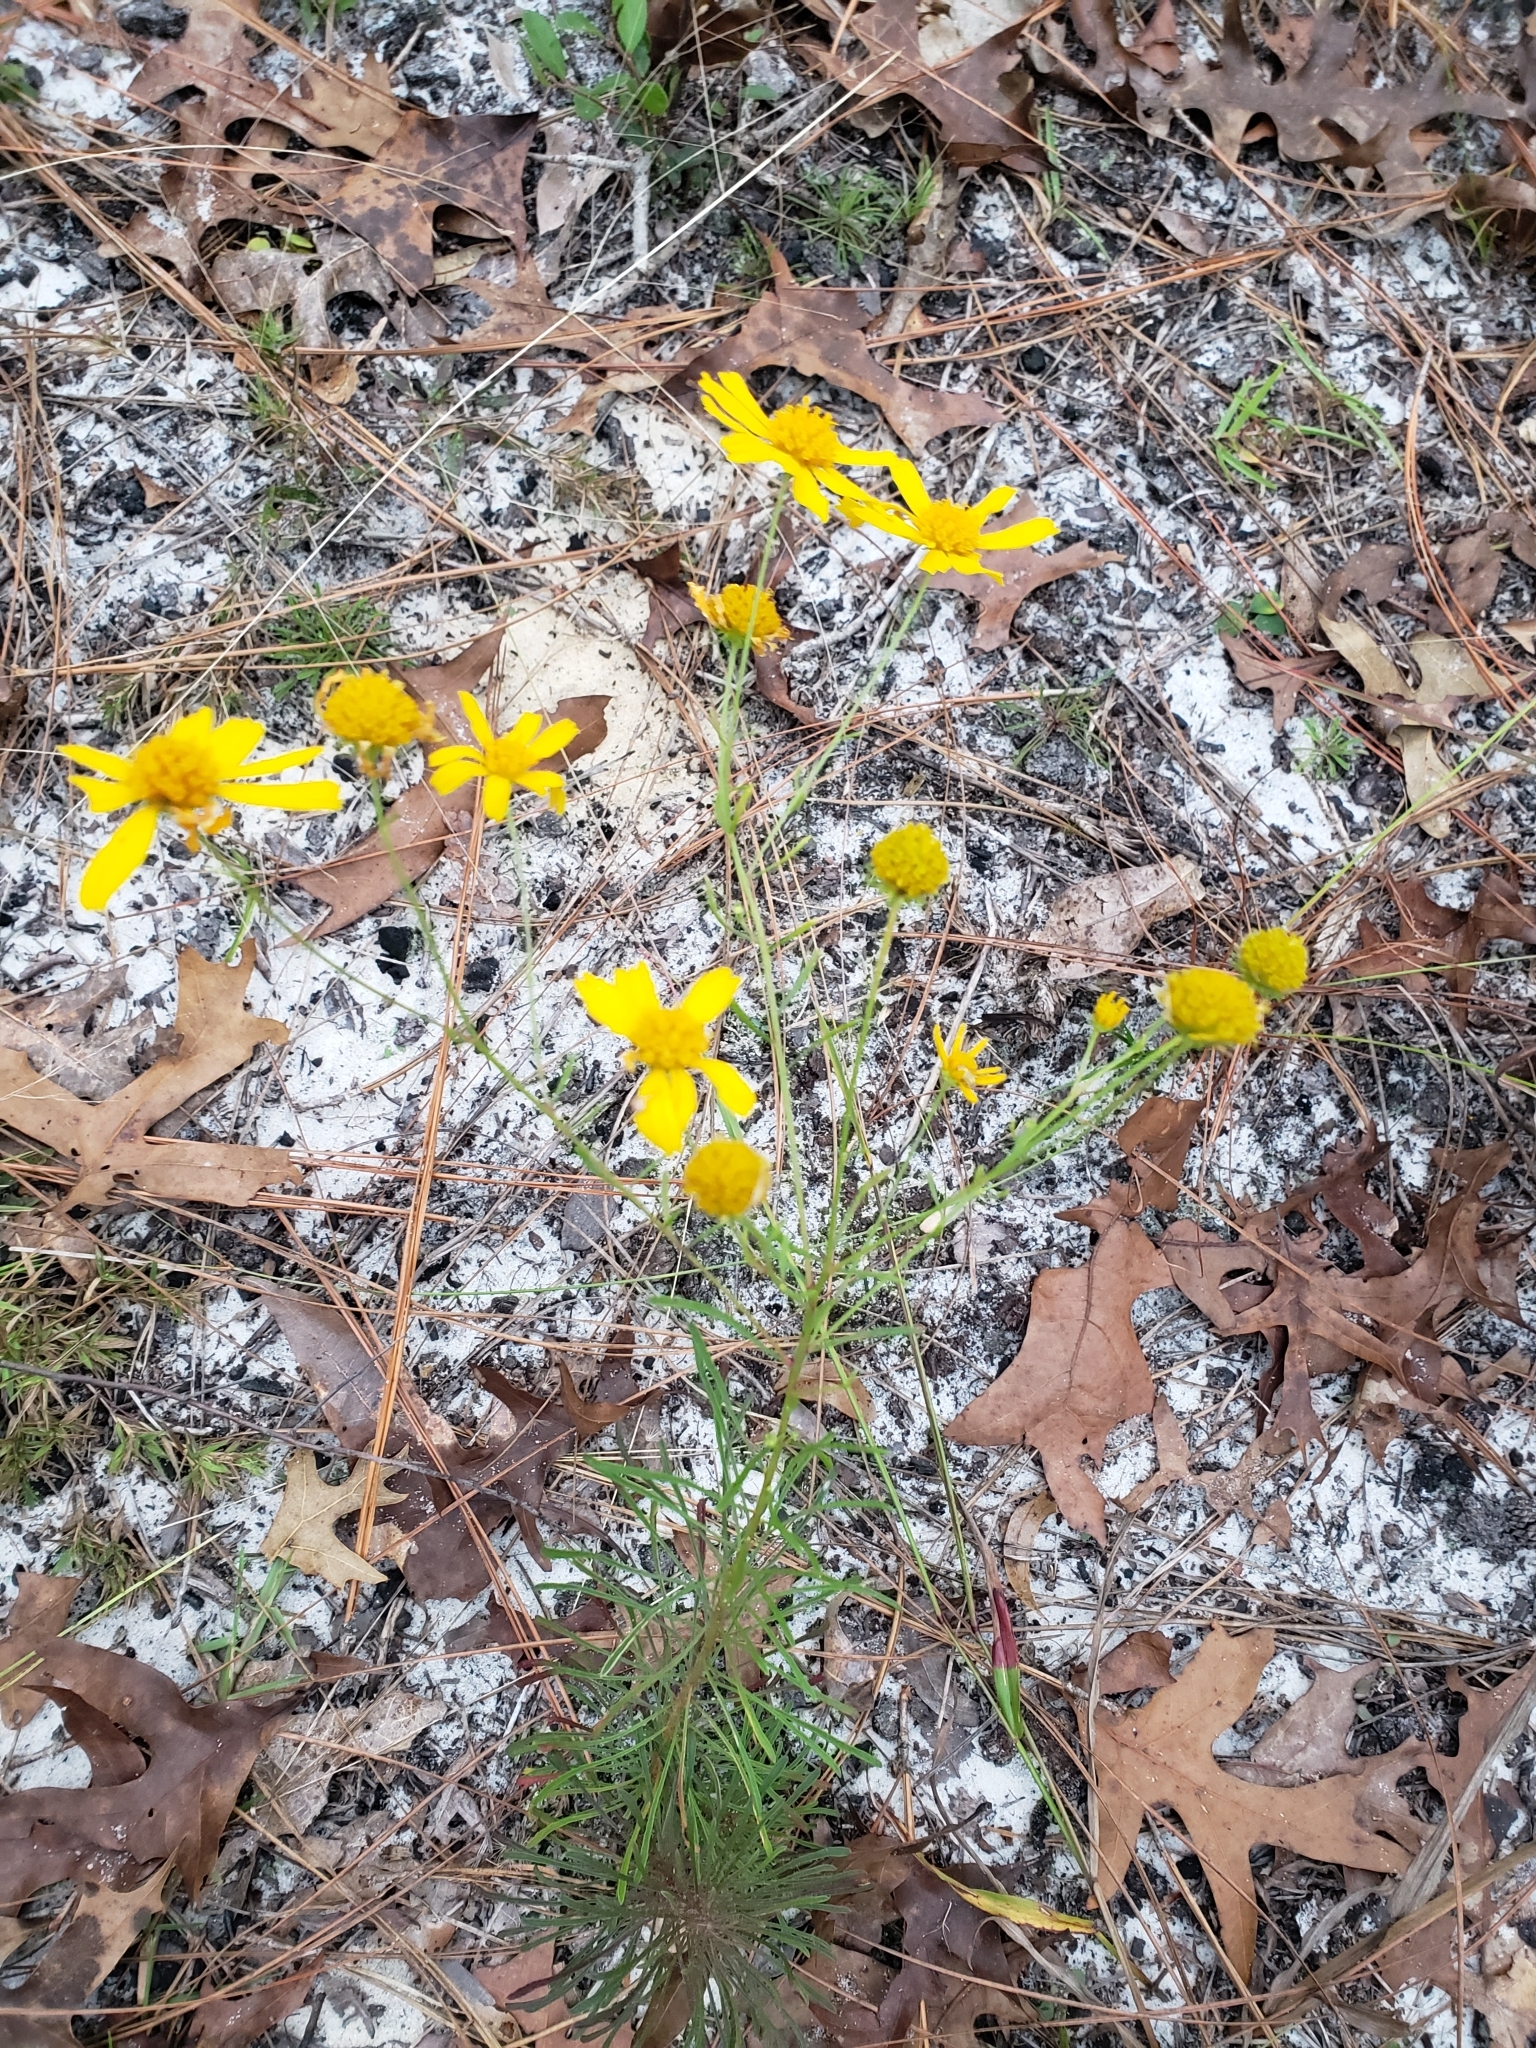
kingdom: Plantae
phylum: Tracheophyta
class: Magnoliopsida
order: Asterales
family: Asteraceae
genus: Balduina
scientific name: Balduina angustifolia
